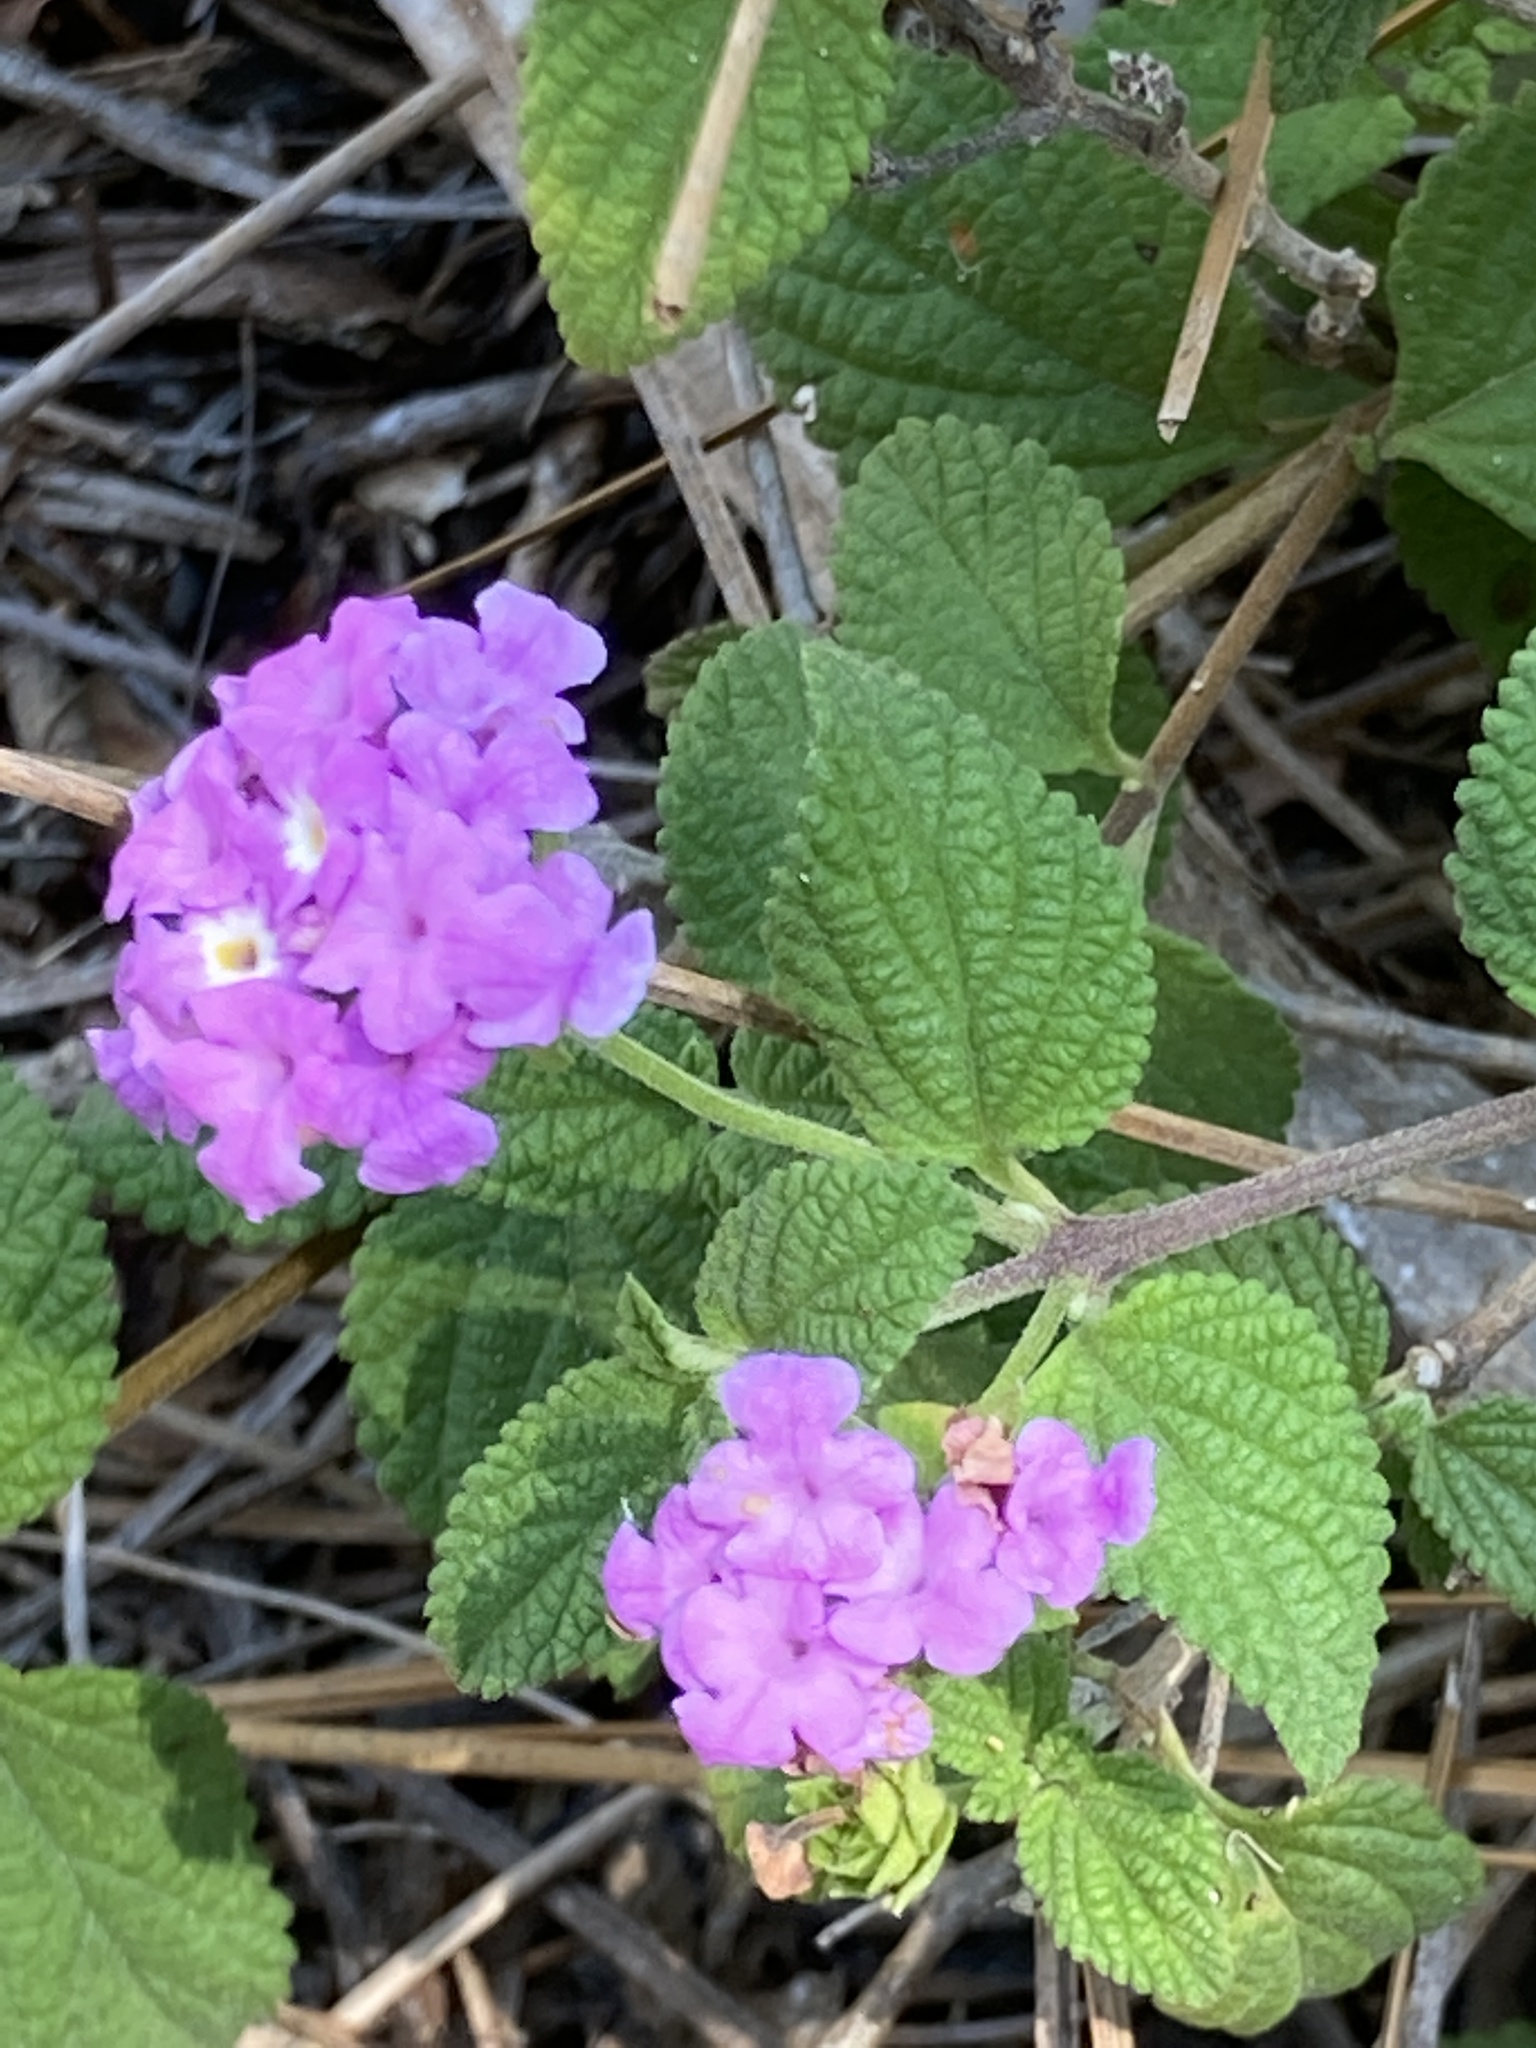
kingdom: Plantae
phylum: Tracheophyta
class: Magnoliopsida
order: Lamiales
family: Verbenaceae
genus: Lantana
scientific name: Lantana montevidensis
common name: Trailing shrubverbena
